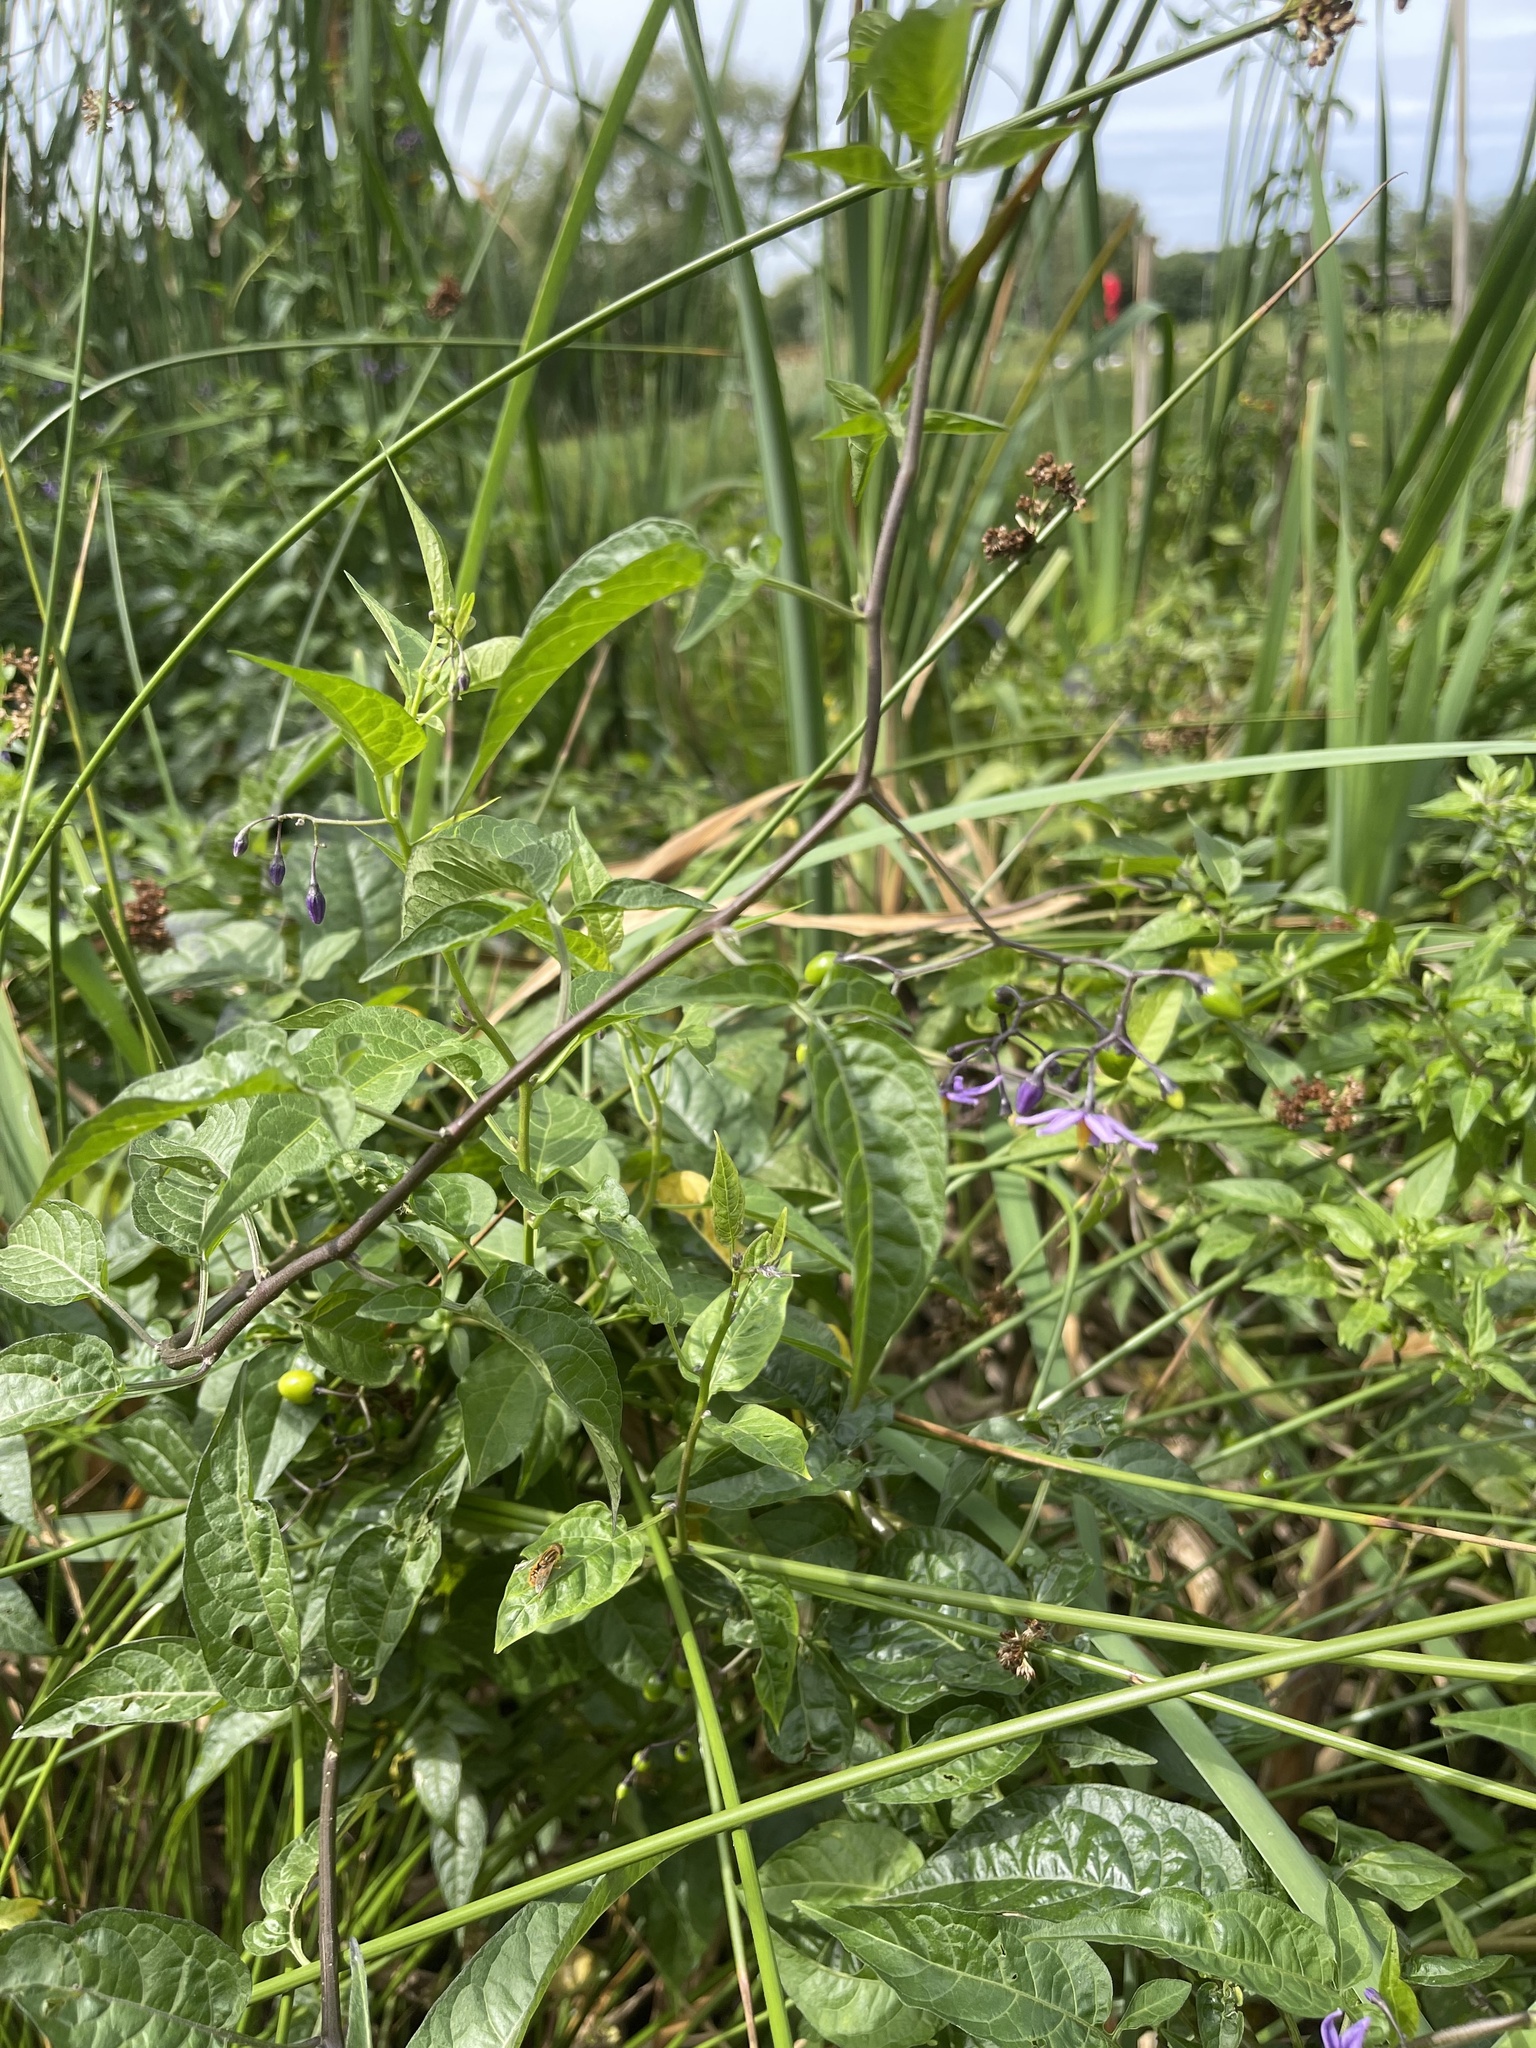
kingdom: Plantae
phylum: Tracheophyta
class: Magnoliopsida
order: Solanales
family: Solanaceae
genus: Solanum
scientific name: Solanum dulcamara
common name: Climbing nightshade
